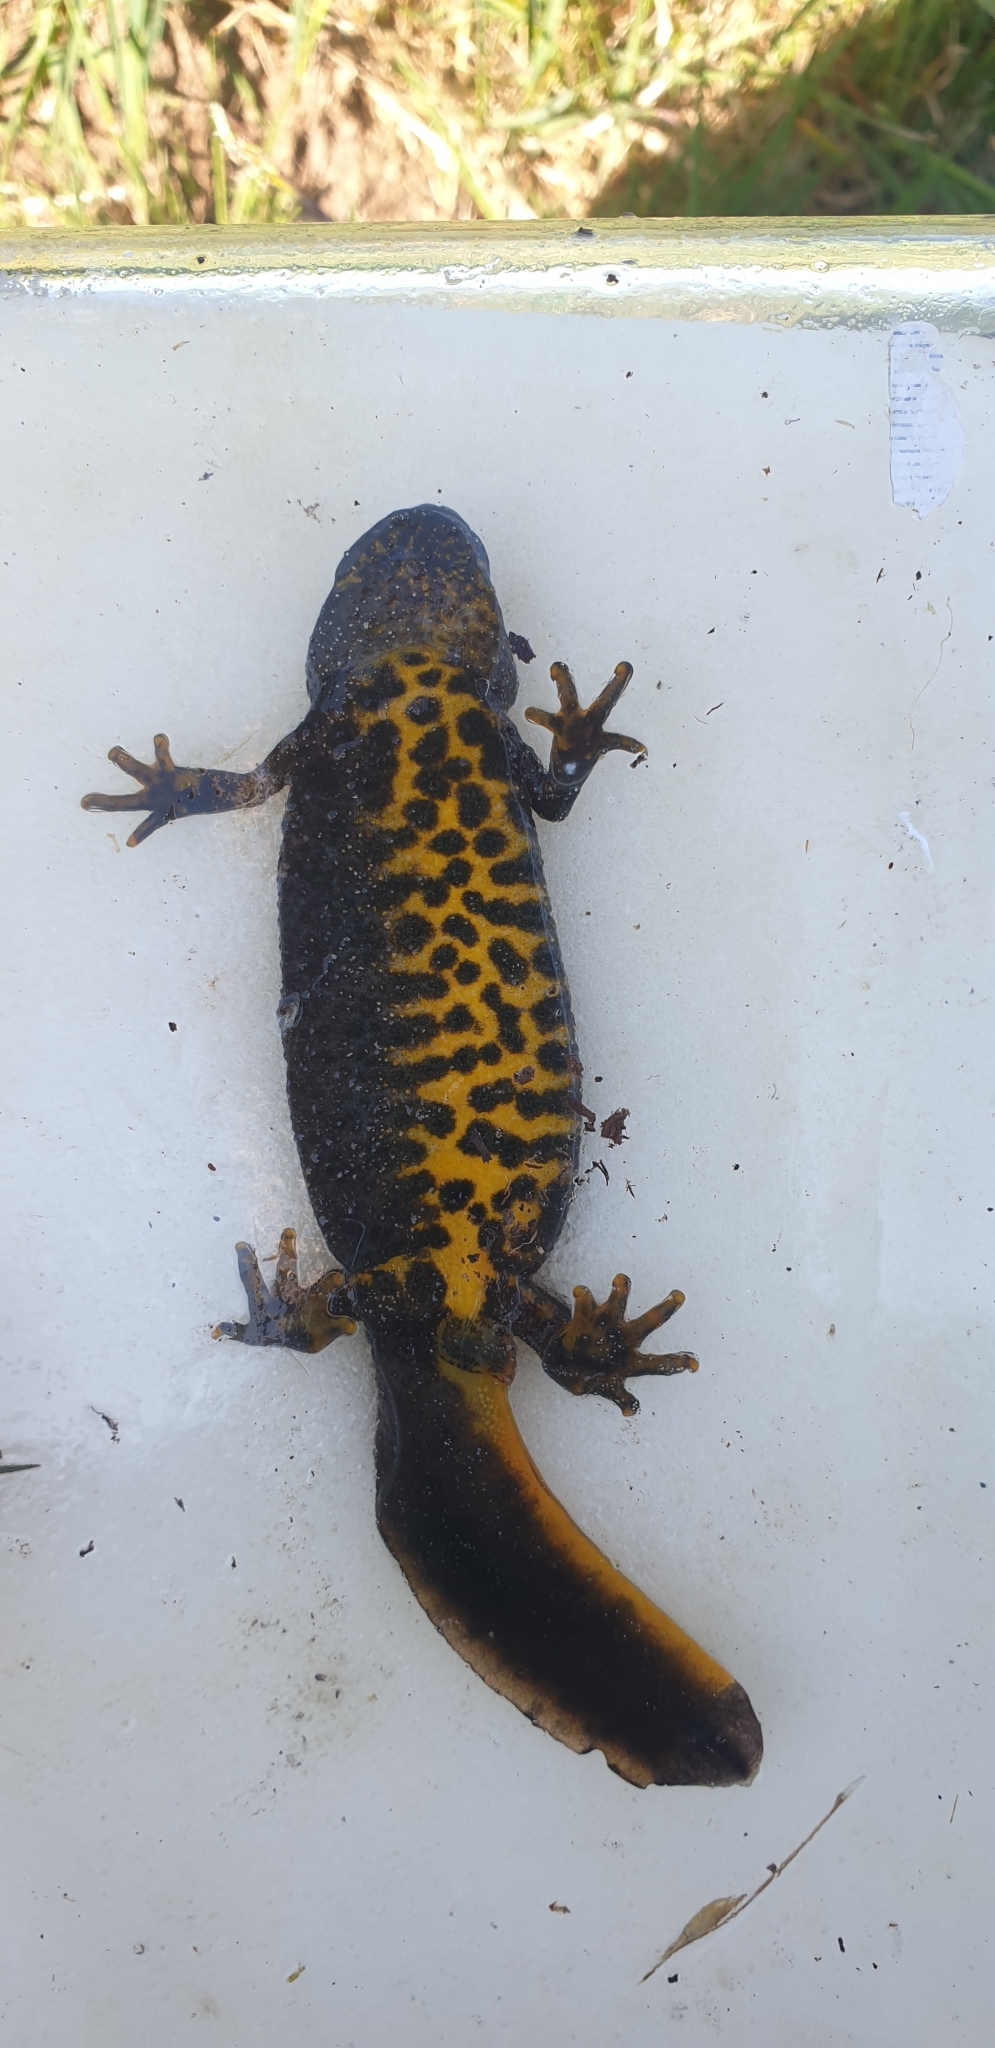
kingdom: Animalia
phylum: Chordata
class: Amphibia
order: Caudata
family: Salamandridae
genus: Triturus
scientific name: Triturus cristatus
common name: Crested newt
